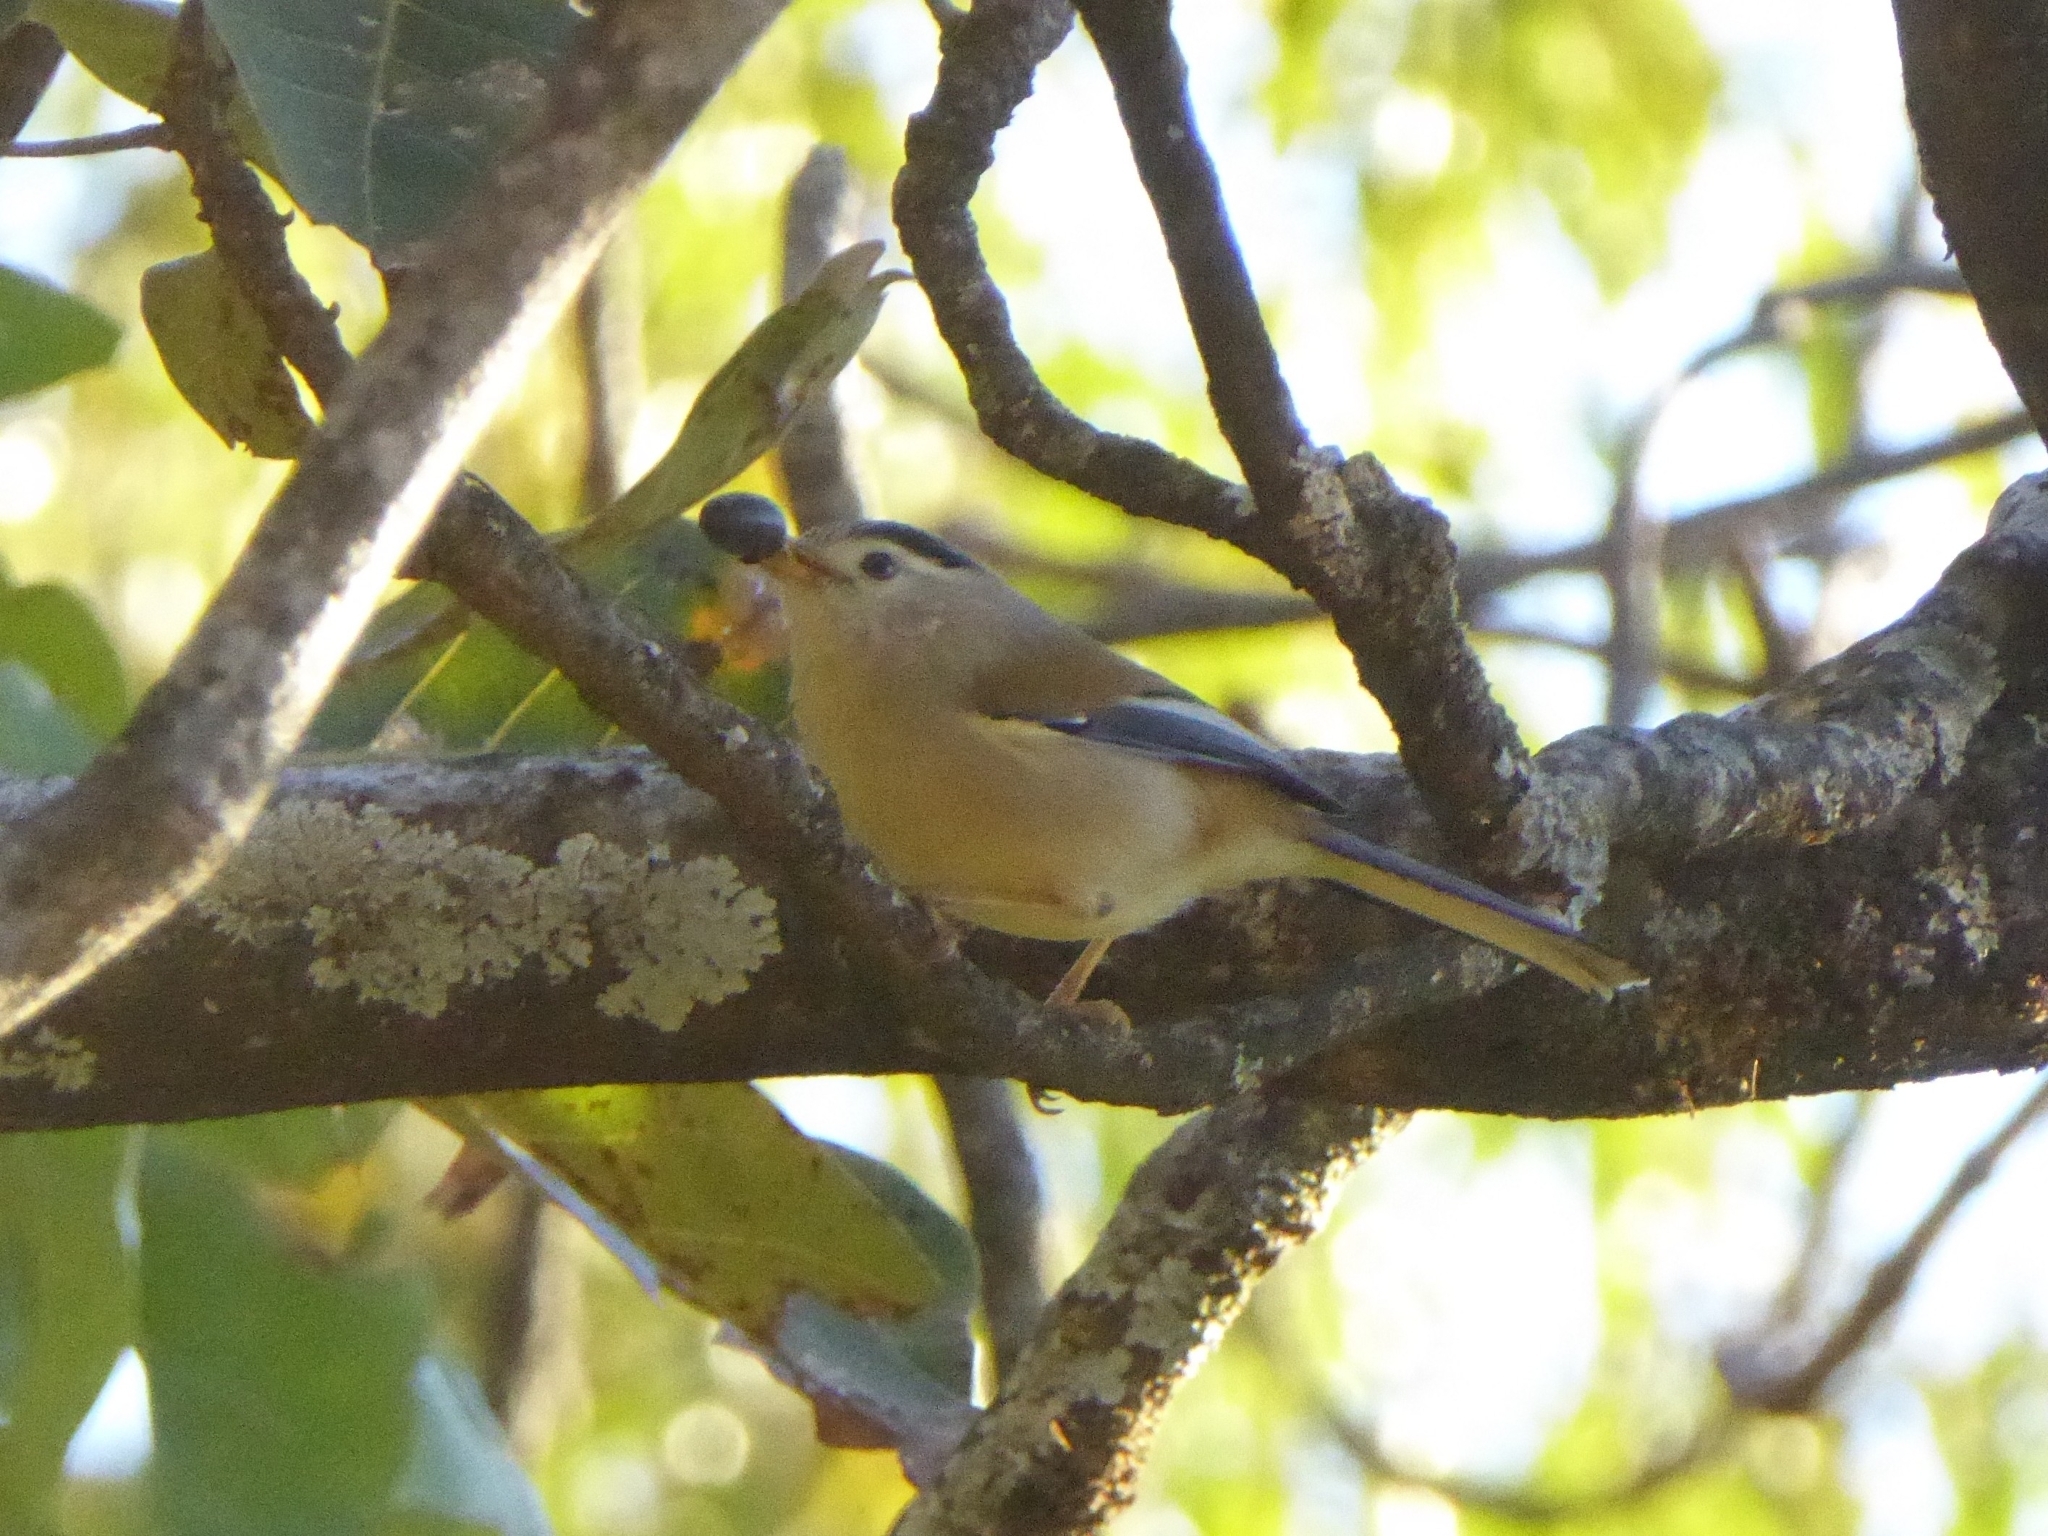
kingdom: Animalia
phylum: Chordata
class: Aves
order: Passeriformes
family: Leiothrichidae
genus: Minla
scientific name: Minla cyanouroptera
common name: Blue-winged minla
